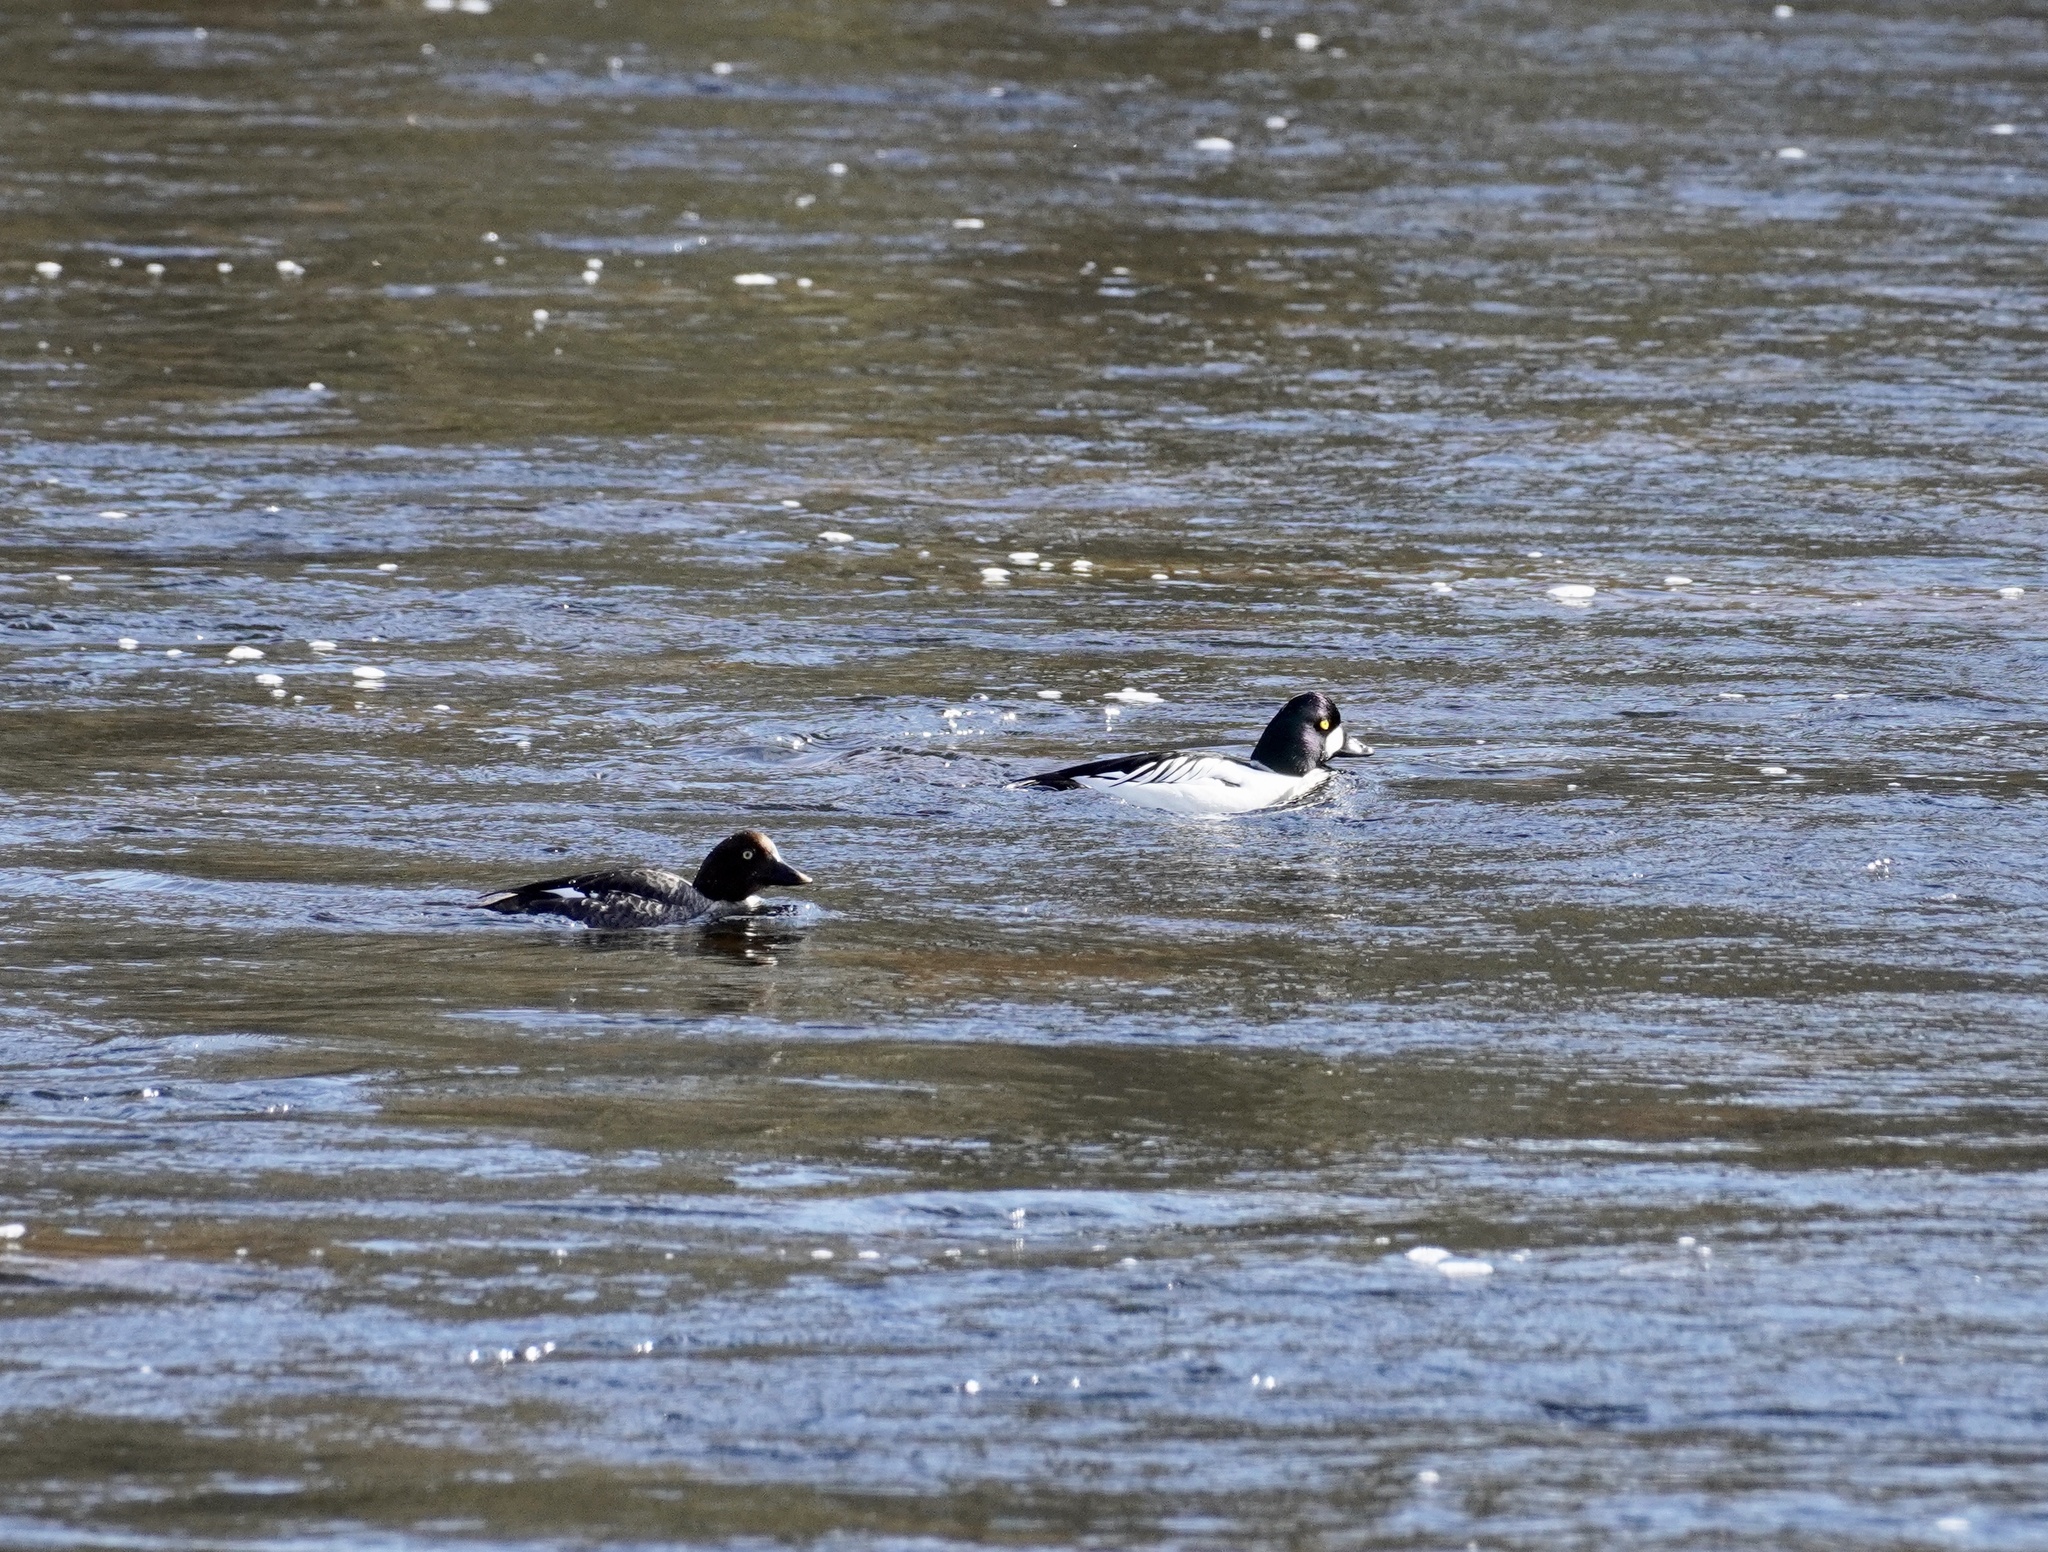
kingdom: Animalia
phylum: Chordata
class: Aves
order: Anseriformes
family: Anatidae
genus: Bucephala
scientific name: Bucephala clangula
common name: Common goldeneye
